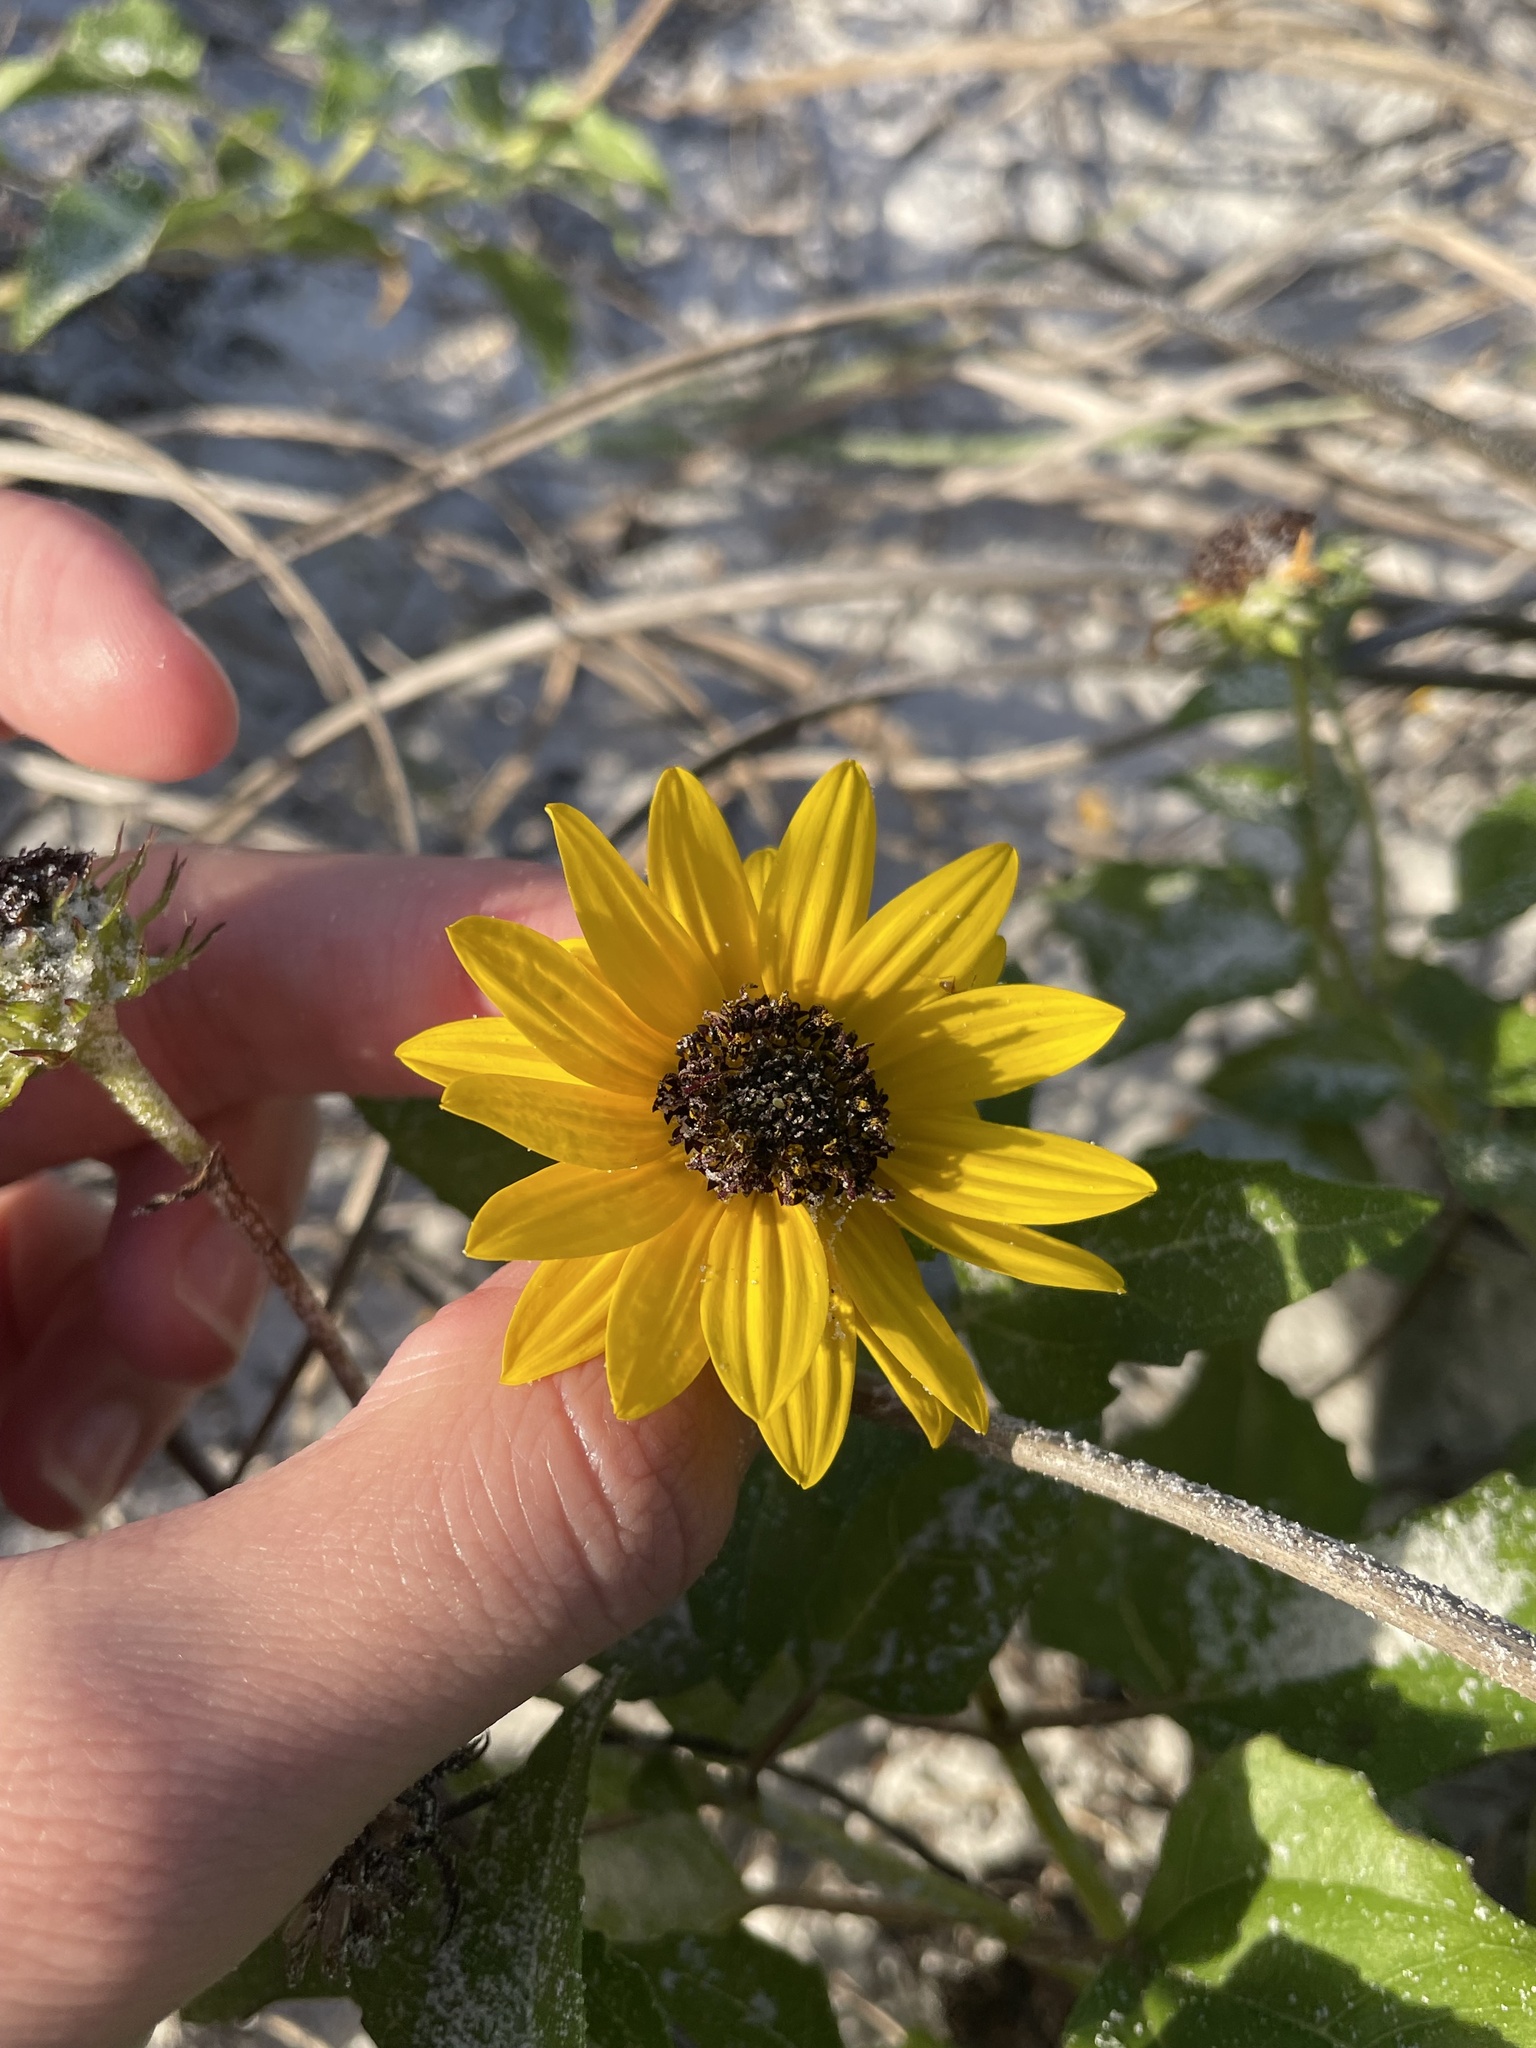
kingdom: Plantae
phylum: Tracheophyta
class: Magnoliopsida
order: Asterales
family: Asteraceae
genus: Helianthus
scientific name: Helianthus debilis
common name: Weak sunflower
